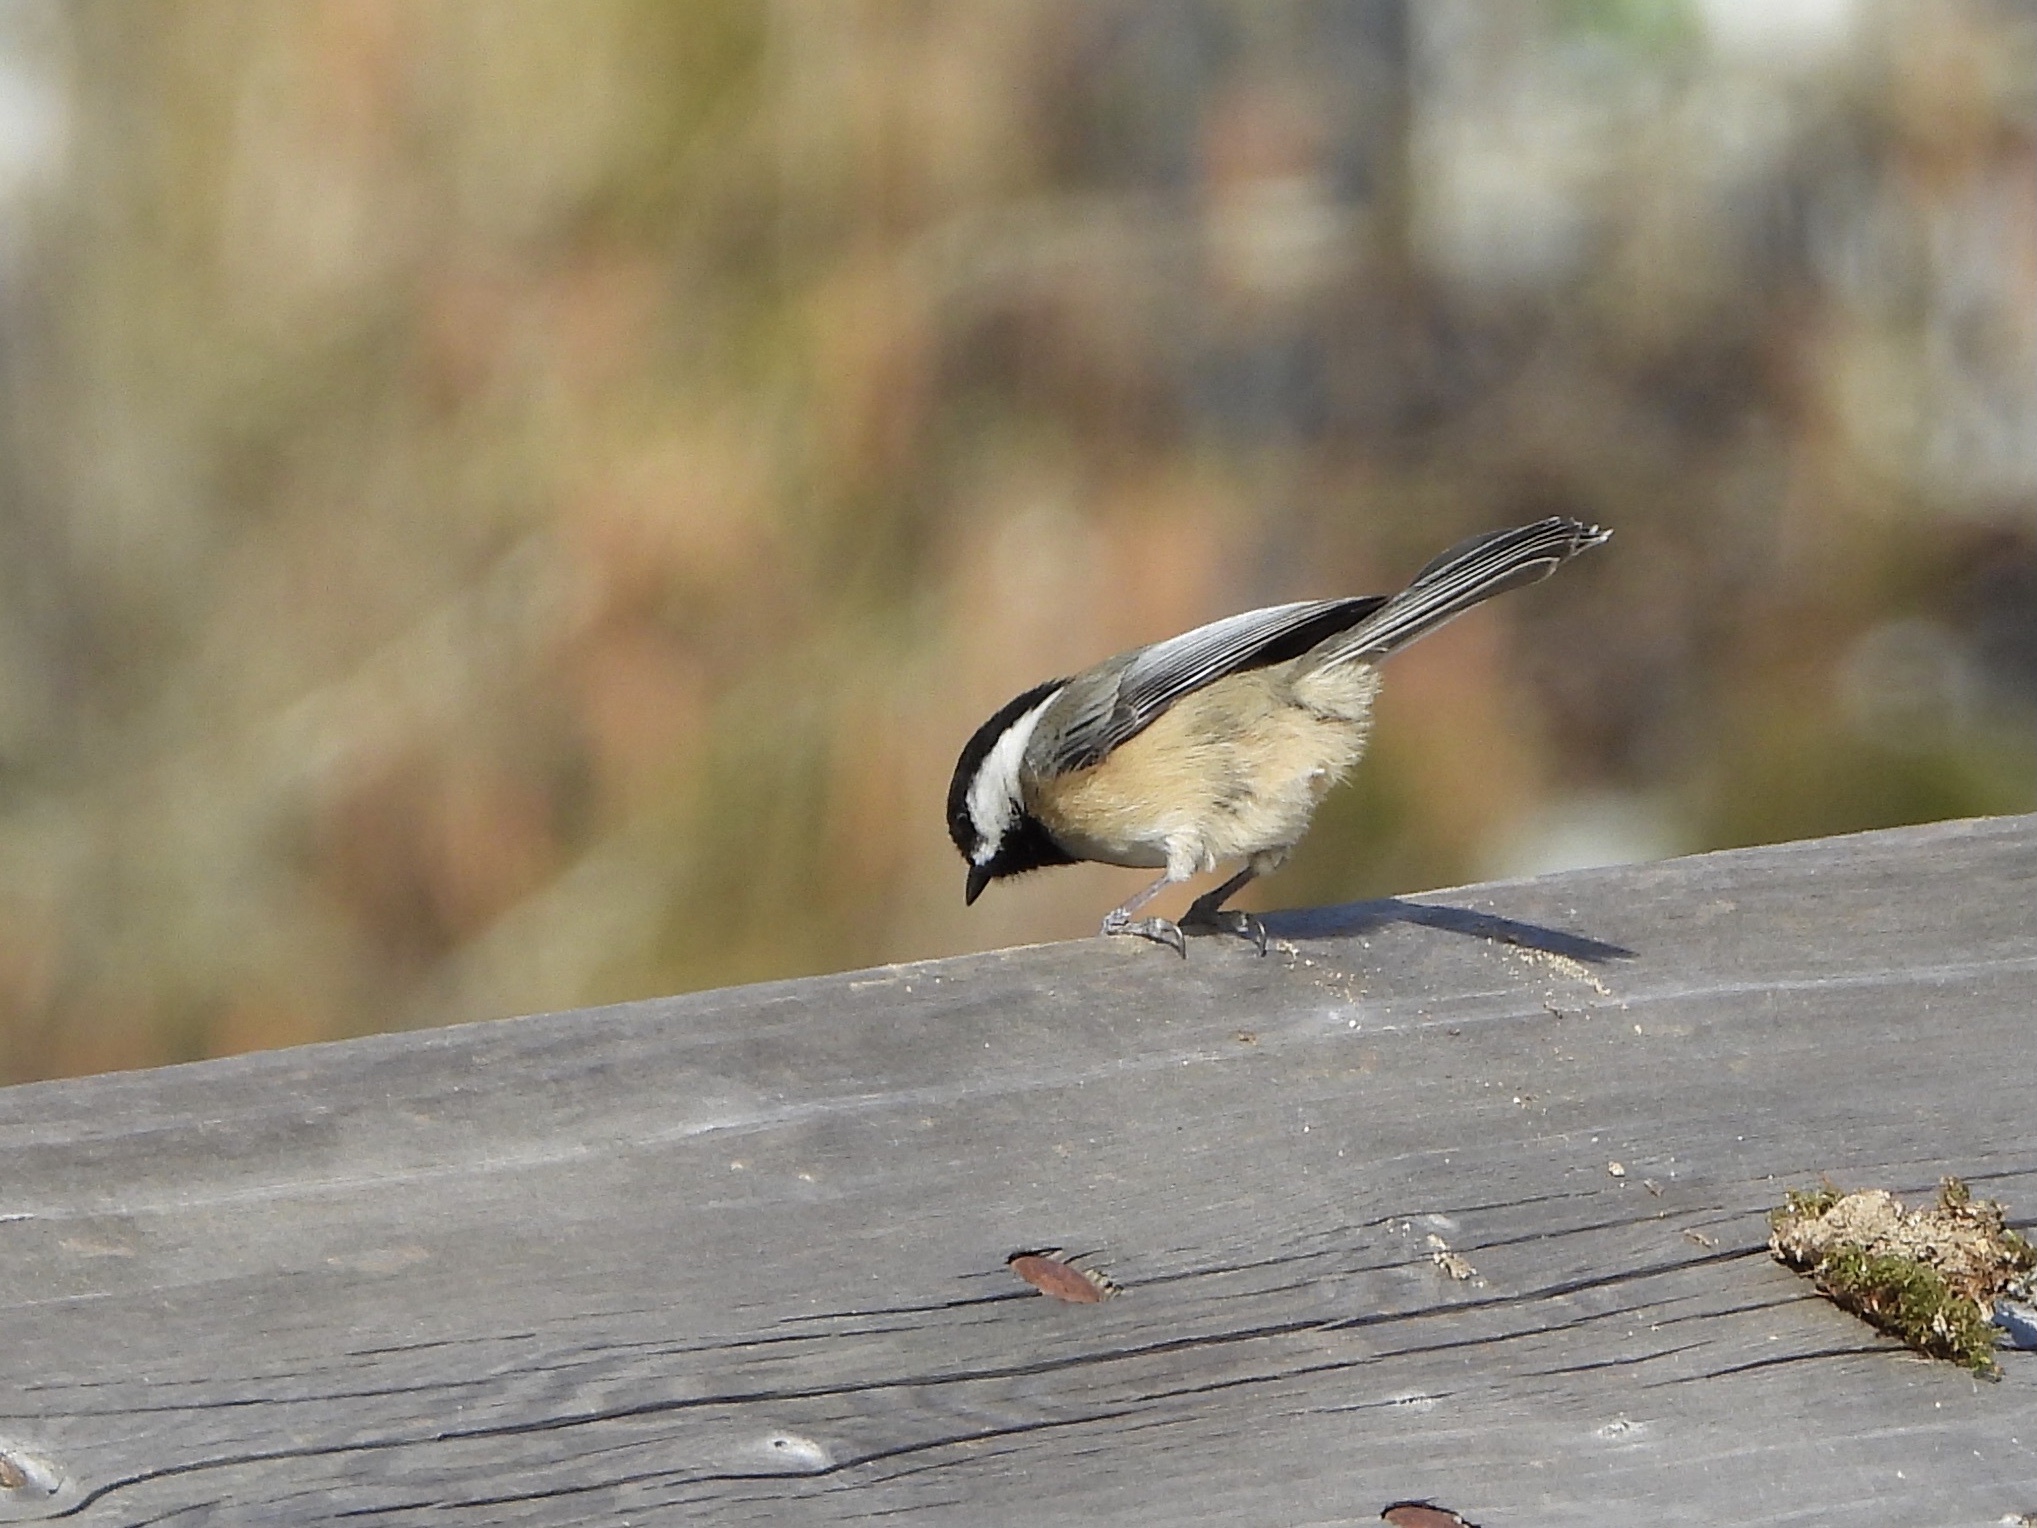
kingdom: Animalia
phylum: Chordata
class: Aves
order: Passeriformes
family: Paridae
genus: Poecile
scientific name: Poecile atricapillus
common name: Black-capped chickadee
